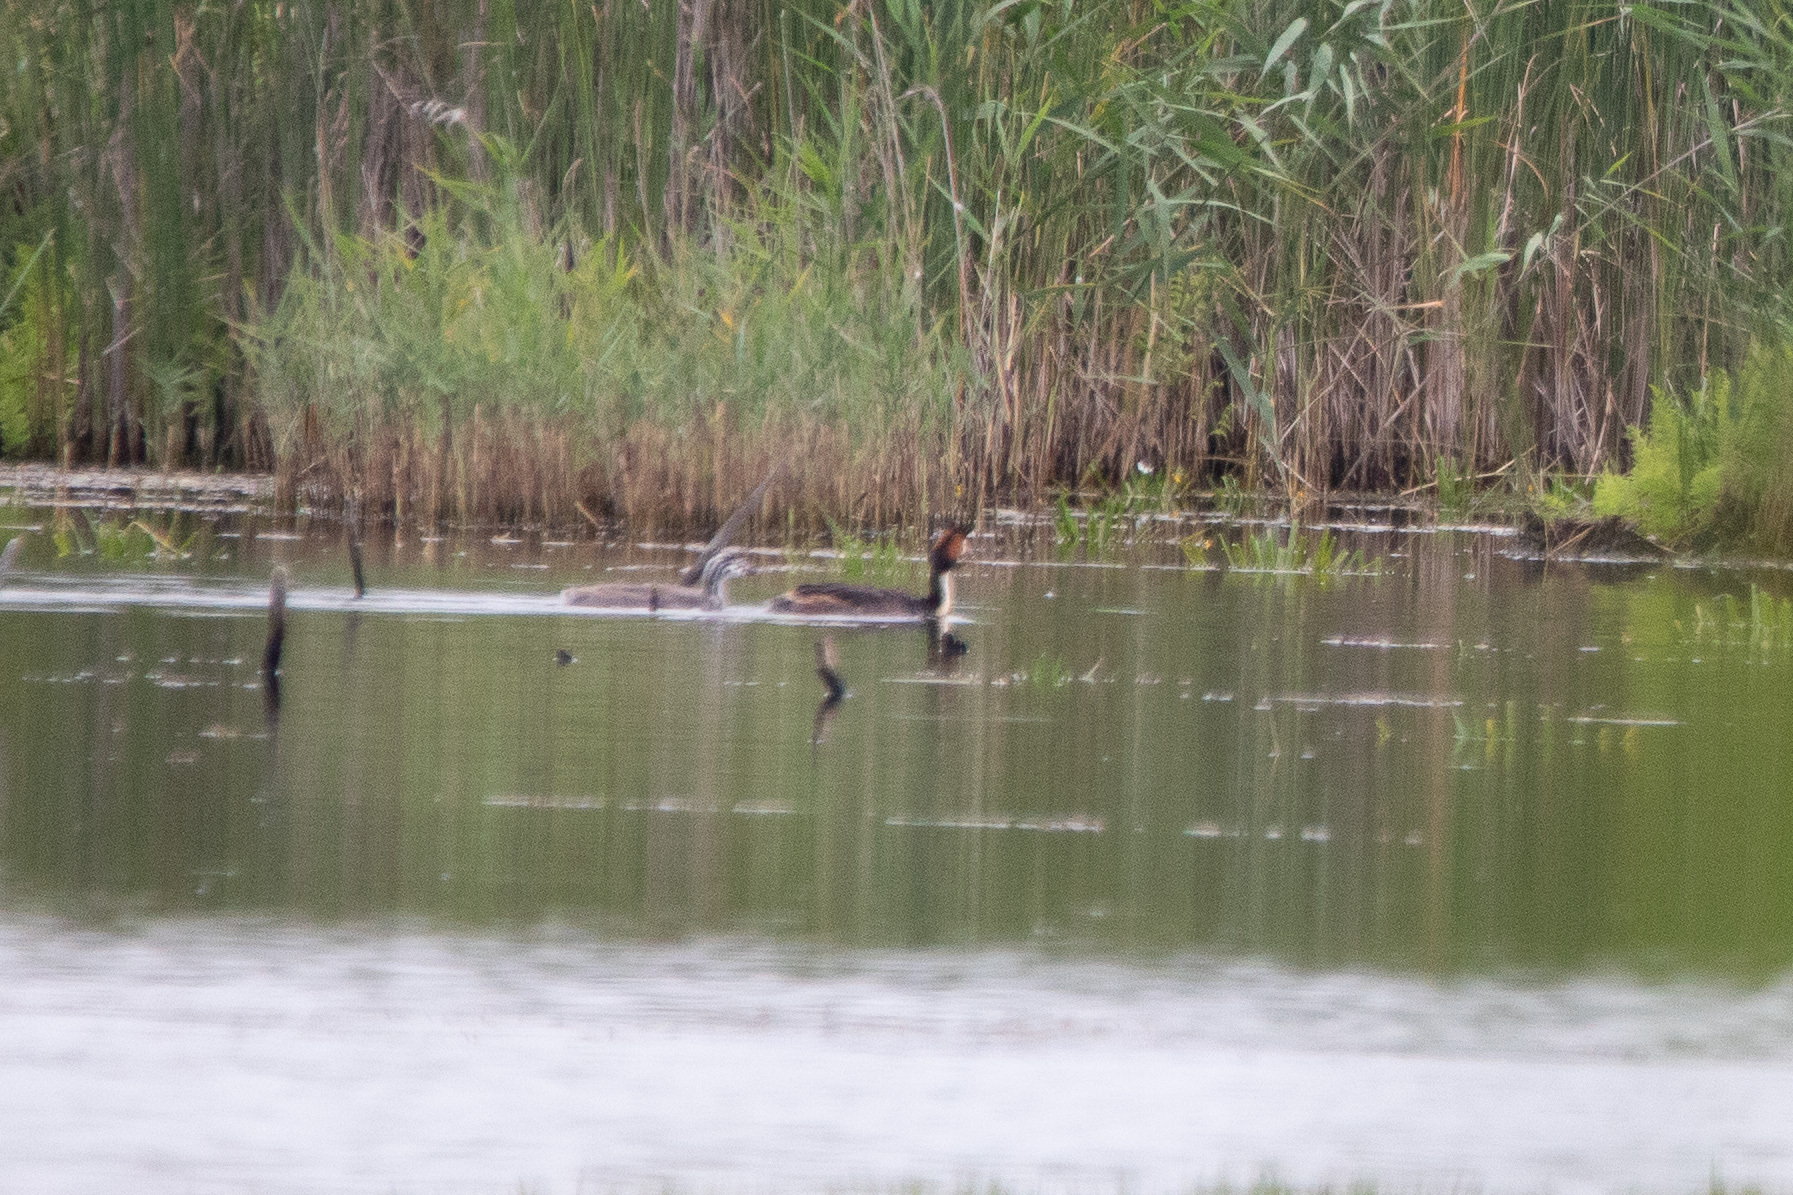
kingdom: Animalia
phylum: Chordata
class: Aves
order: Podicipediformes
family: Podicipedidae
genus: Podiceps
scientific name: Podiceps cristatus
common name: Great crested grebe
